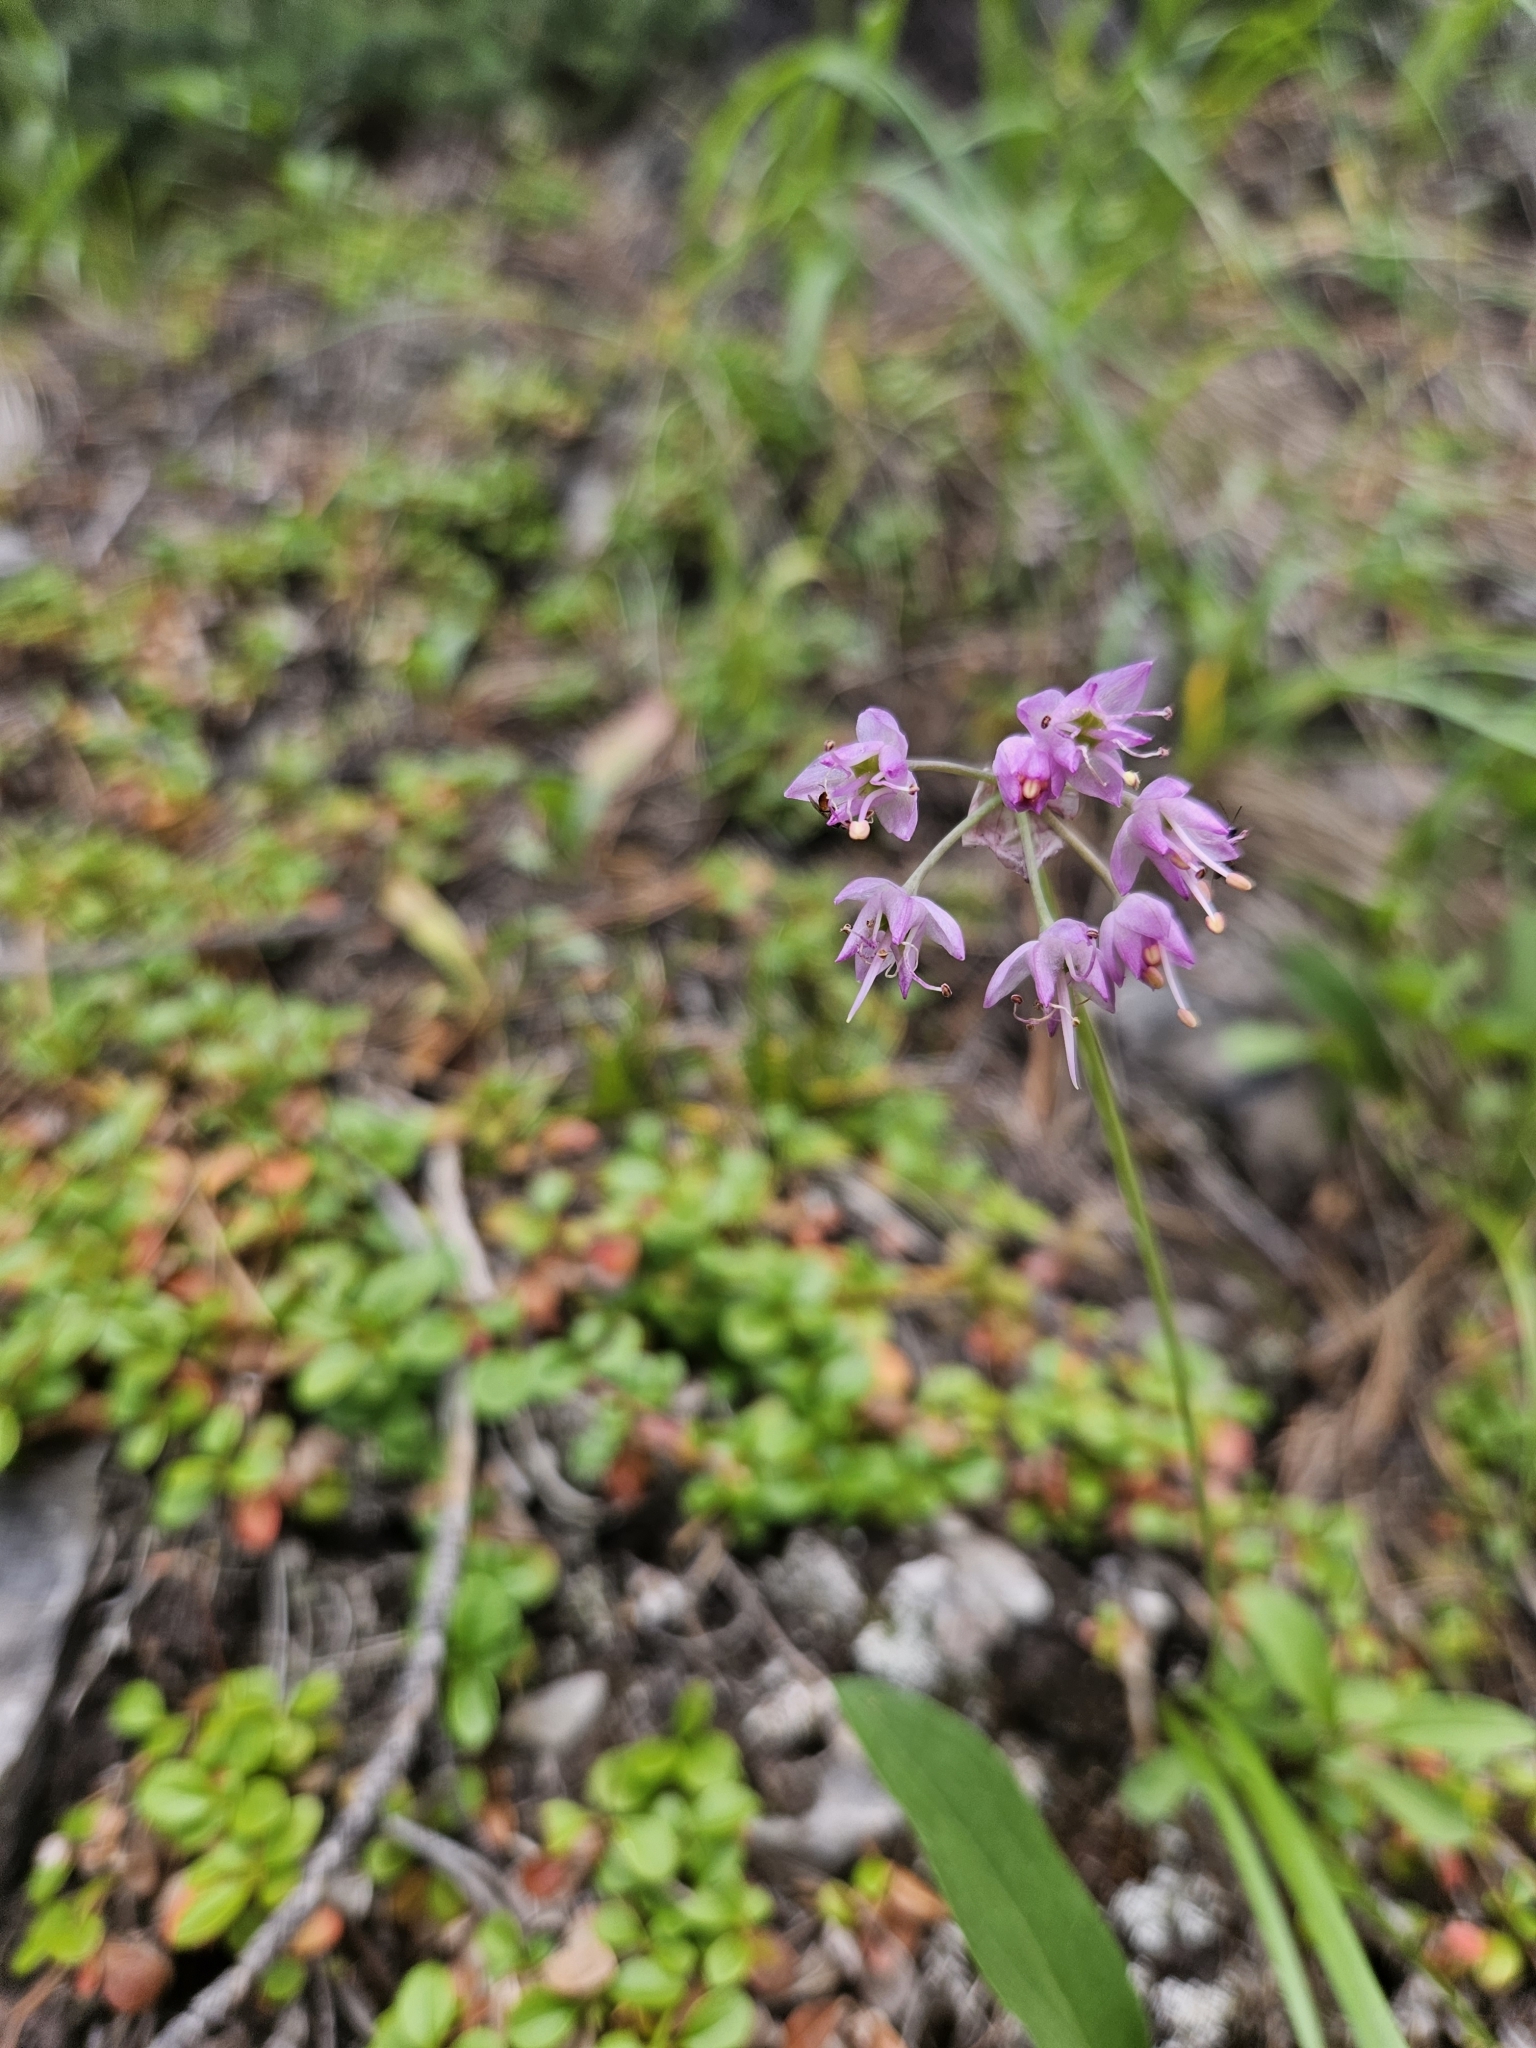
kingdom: Plantae
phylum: Tracheophyta
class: Liliopsida
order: Asparagales
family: Amaryllidaceae
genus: Allium
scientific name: Allium cernuum
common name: Nodding onion
